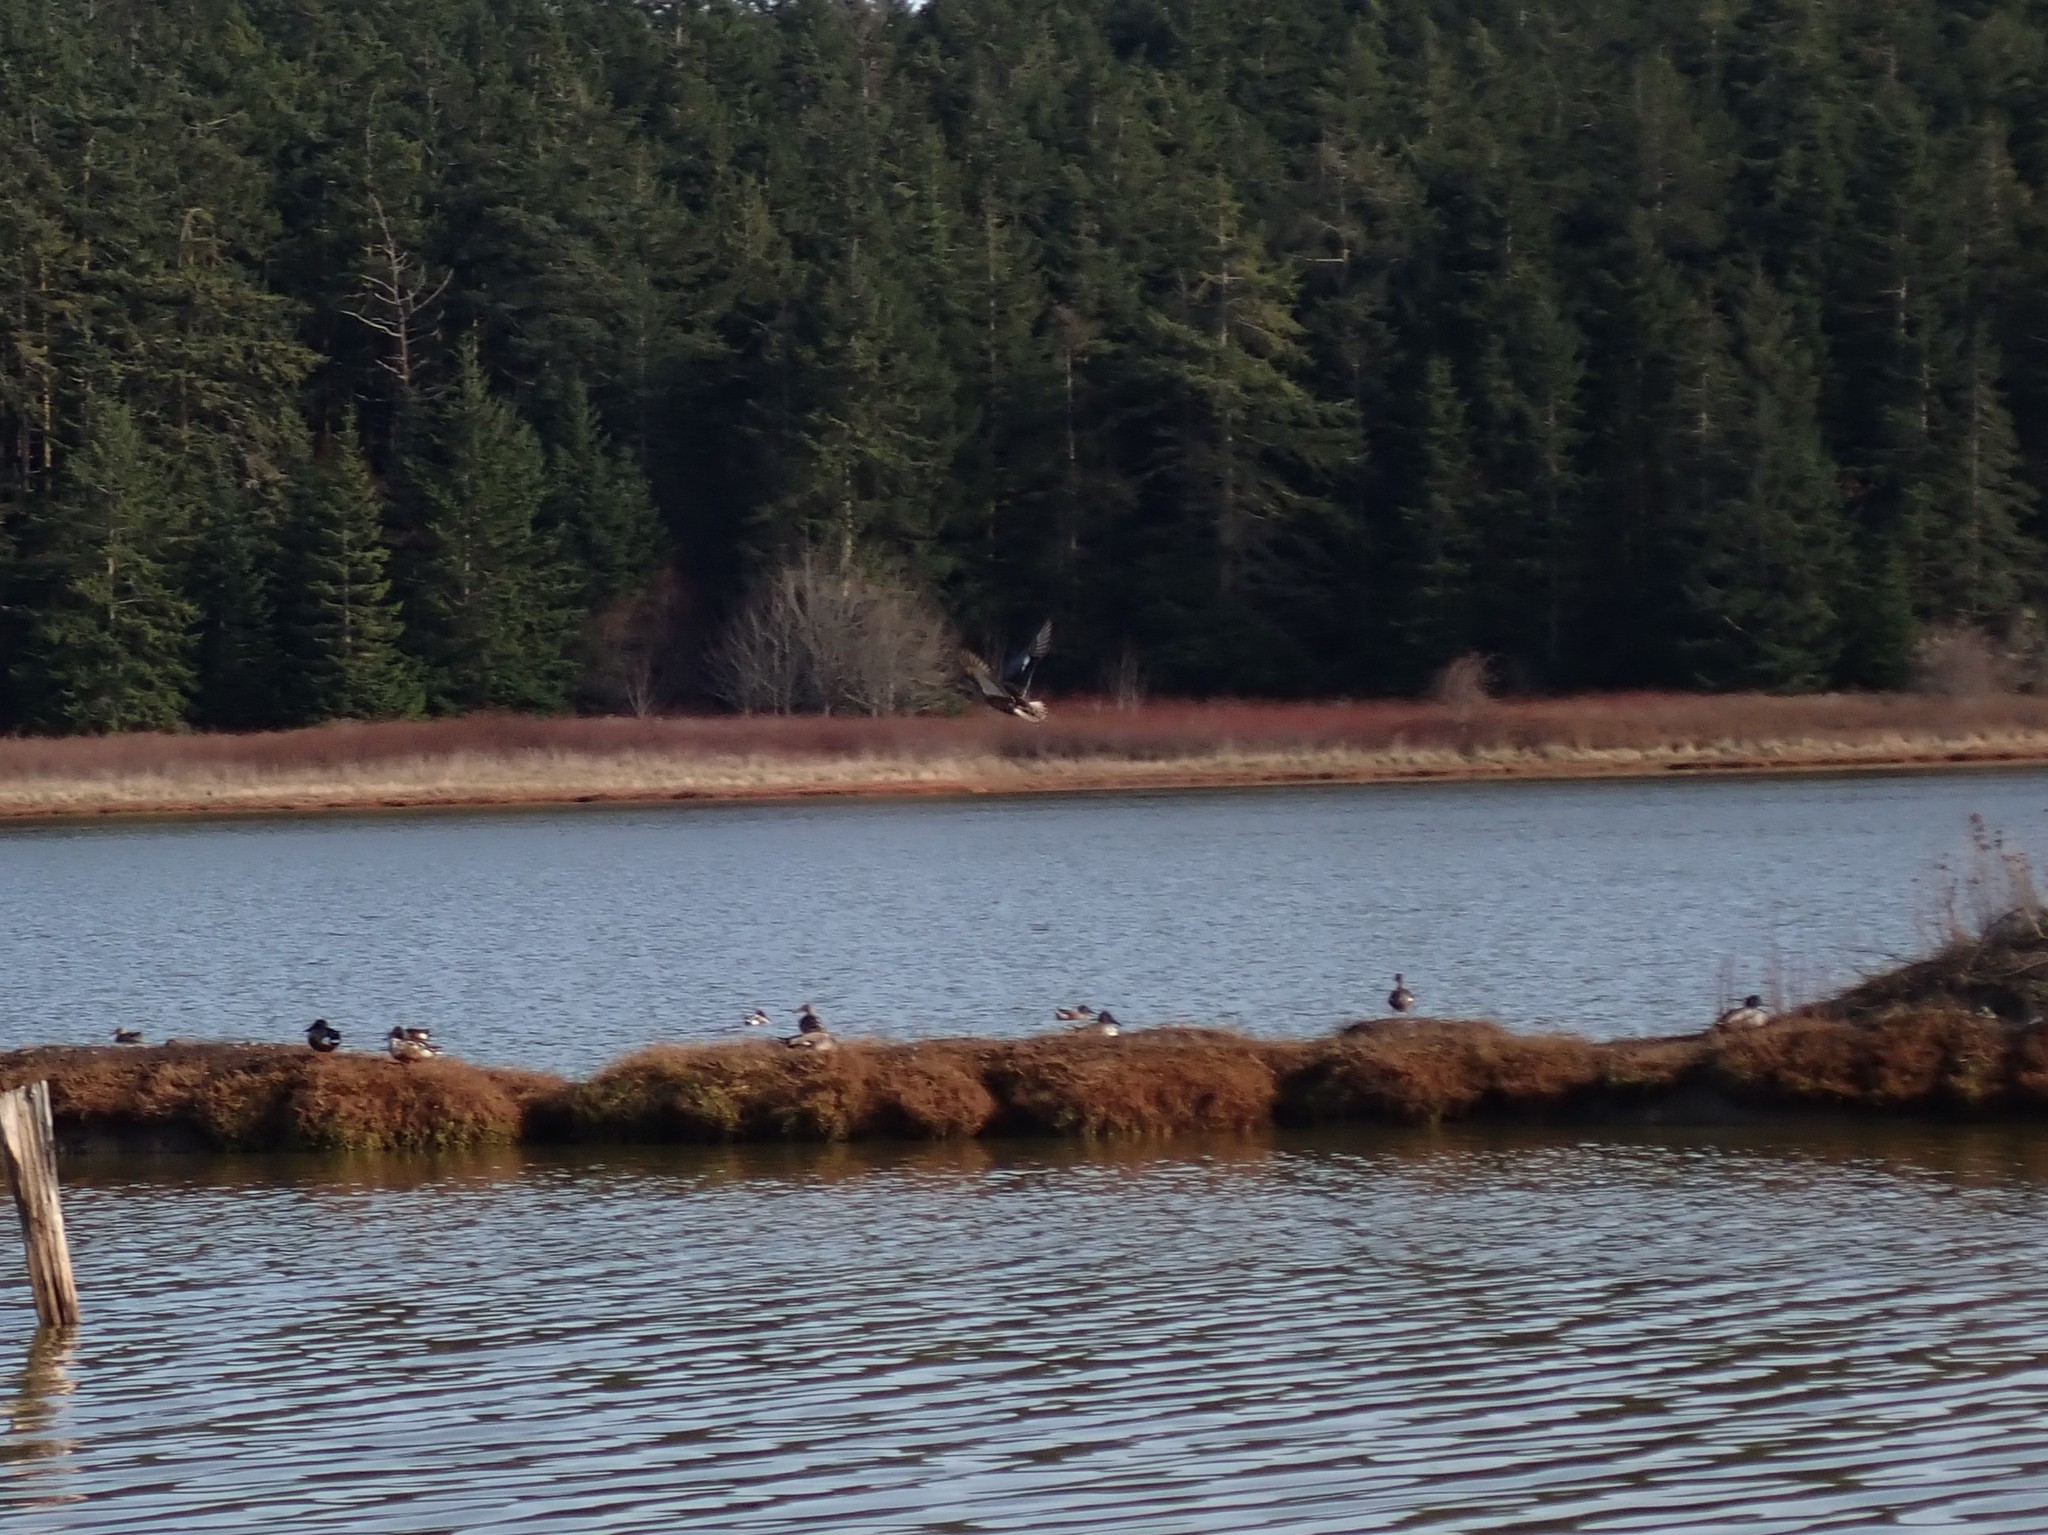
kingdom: Animalia
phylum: Chordata
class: Aves
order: Anseriformes
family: Anatidae
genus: Spatula
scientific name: Spatula clypeata
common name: Northern shoveler
